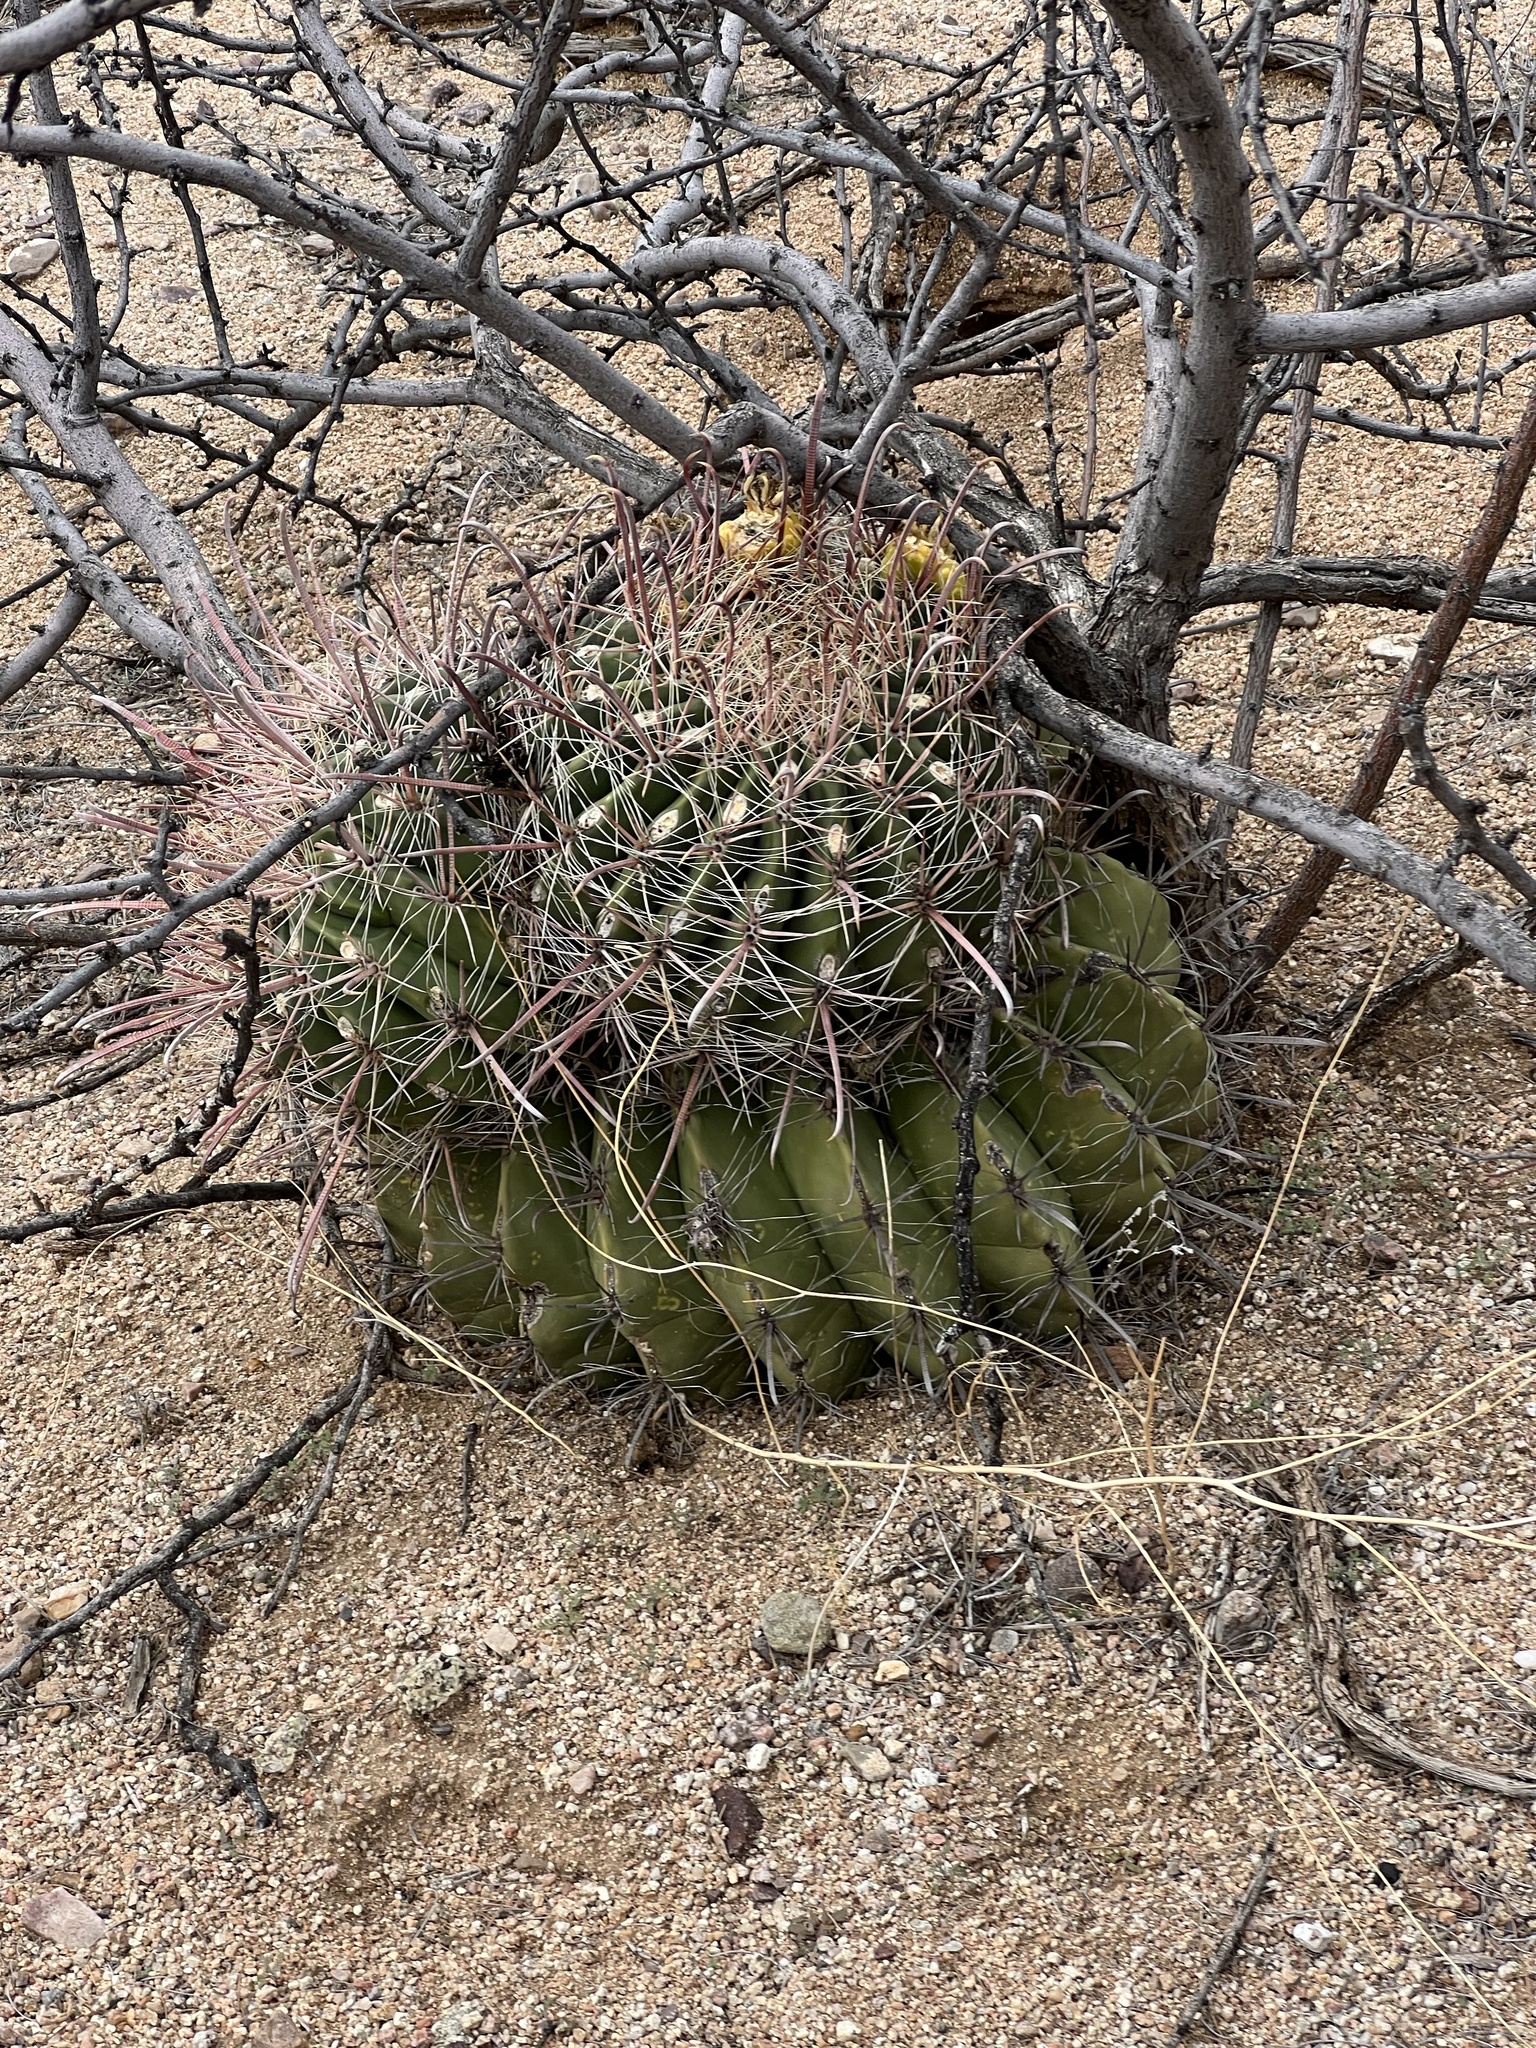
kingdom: Plantae
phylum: Tracheophyta
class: Magnoliopsida
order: Caryophyllales
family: Cactaceae
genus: Ferocactus
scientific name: Ferocactus wislizeni
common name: Candy barrel cactus
